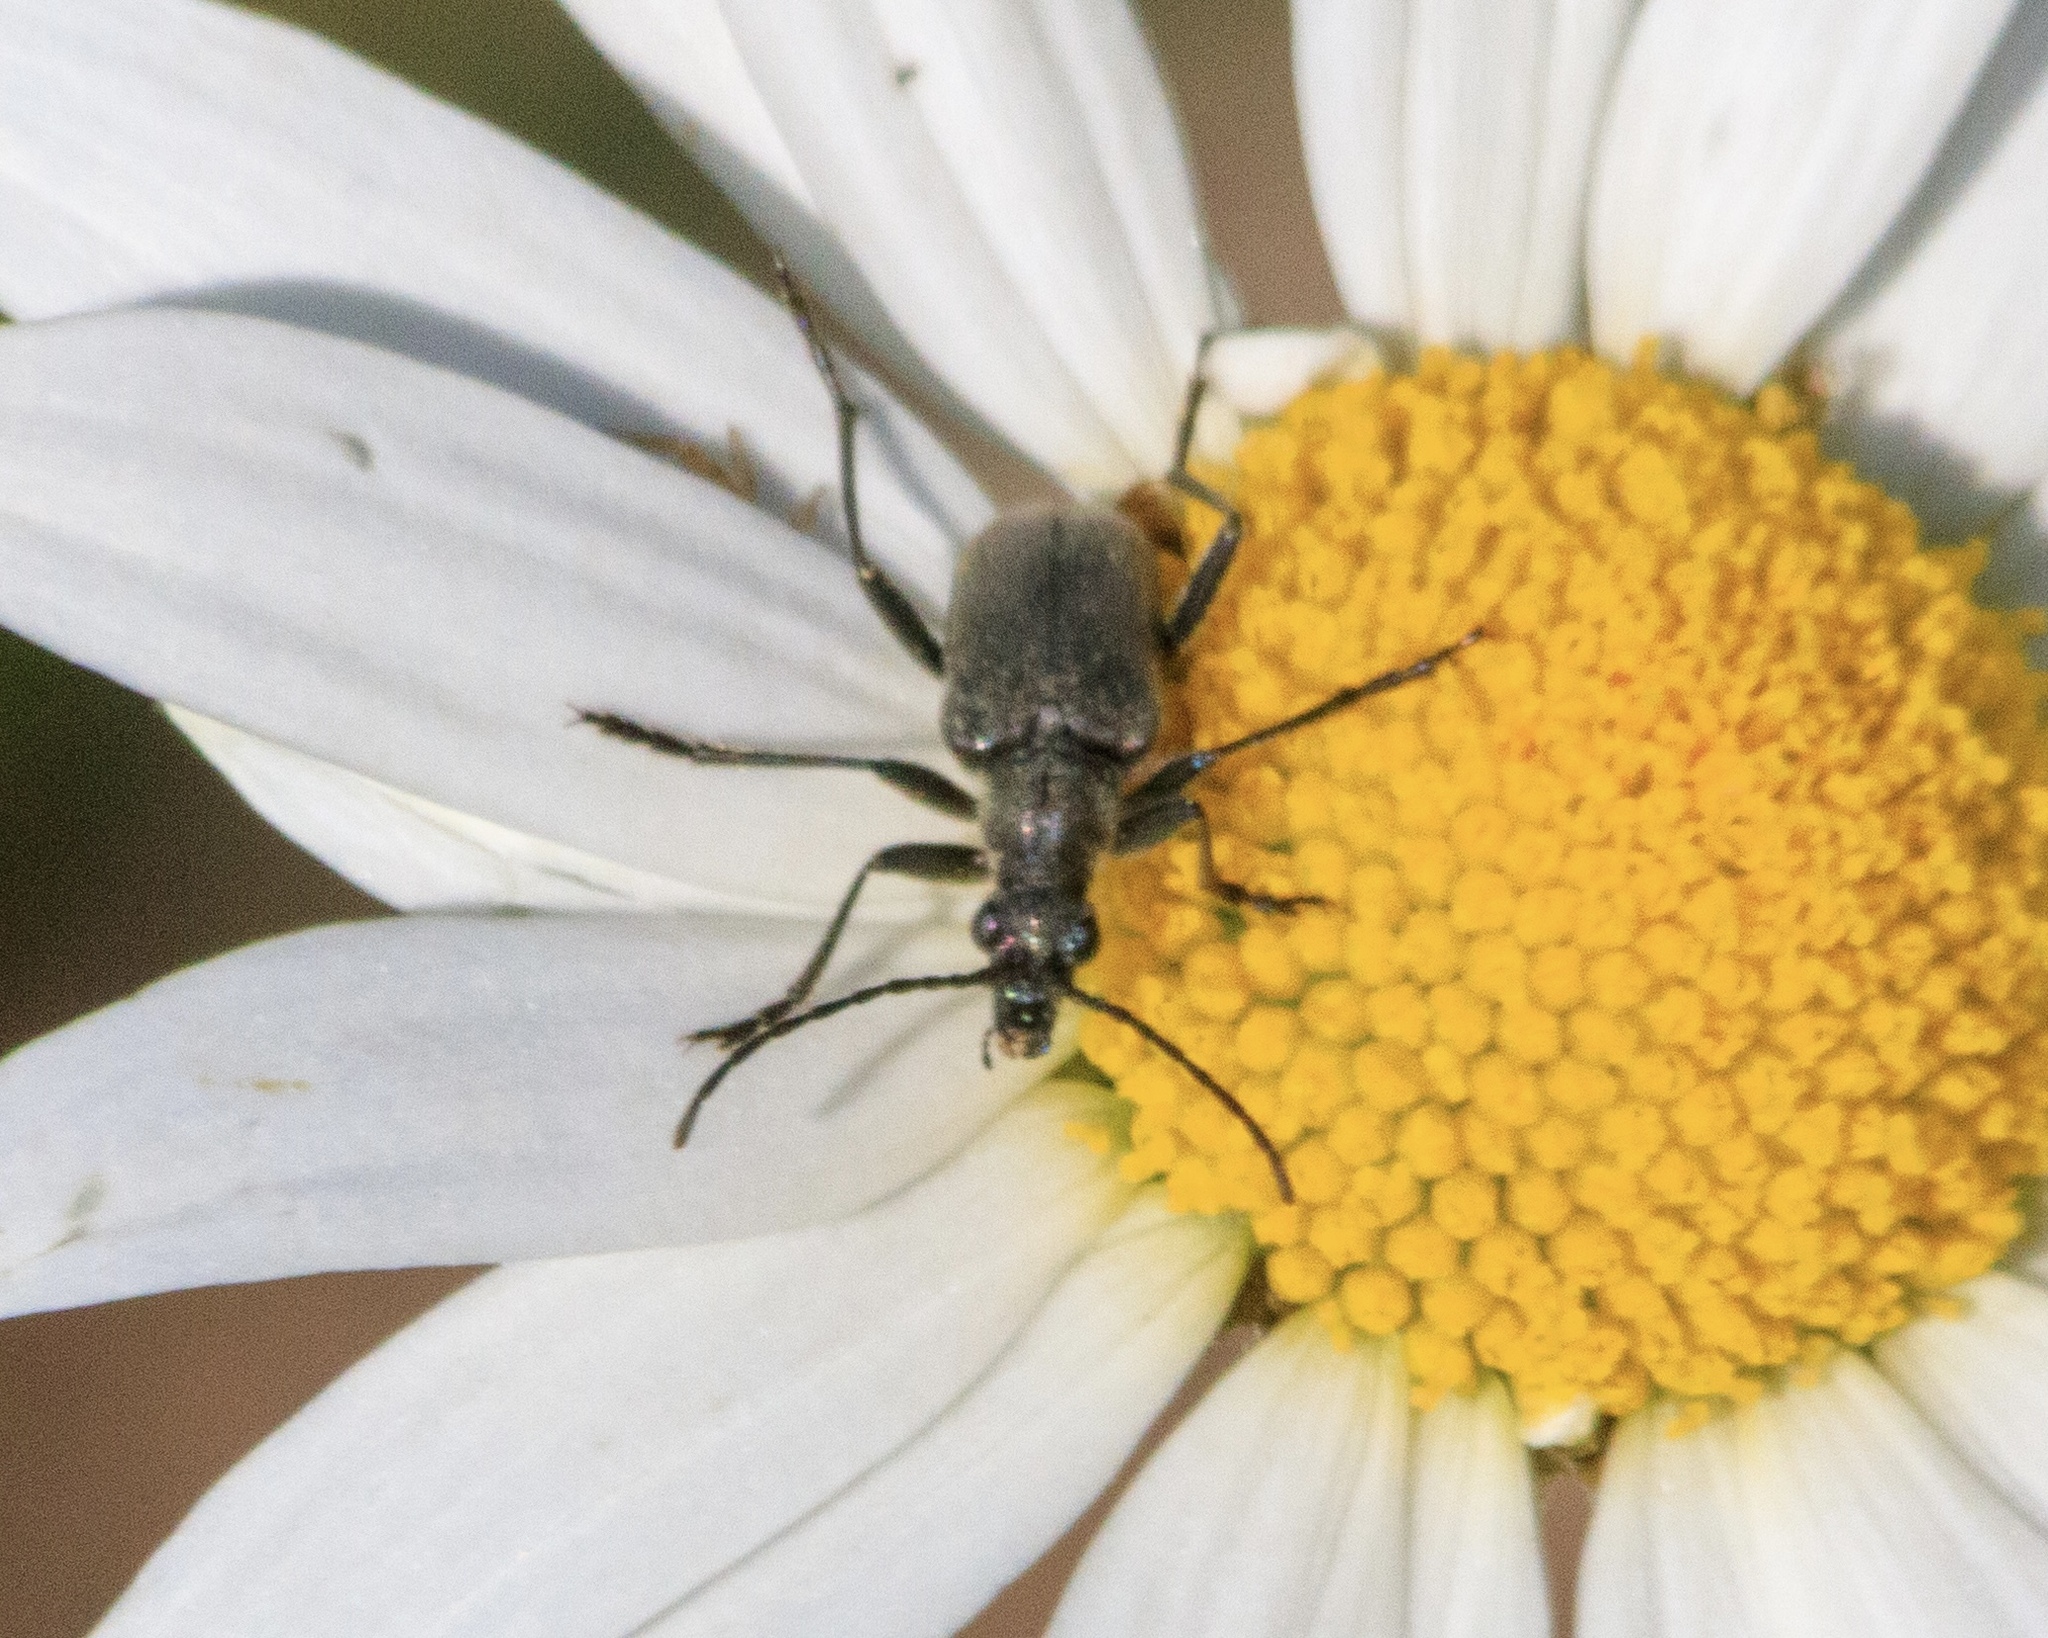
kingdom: Animalia
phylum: Arthropoda
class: Insecta
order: Coleoptera
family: Cerambycidae
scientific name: Cerambycidae
